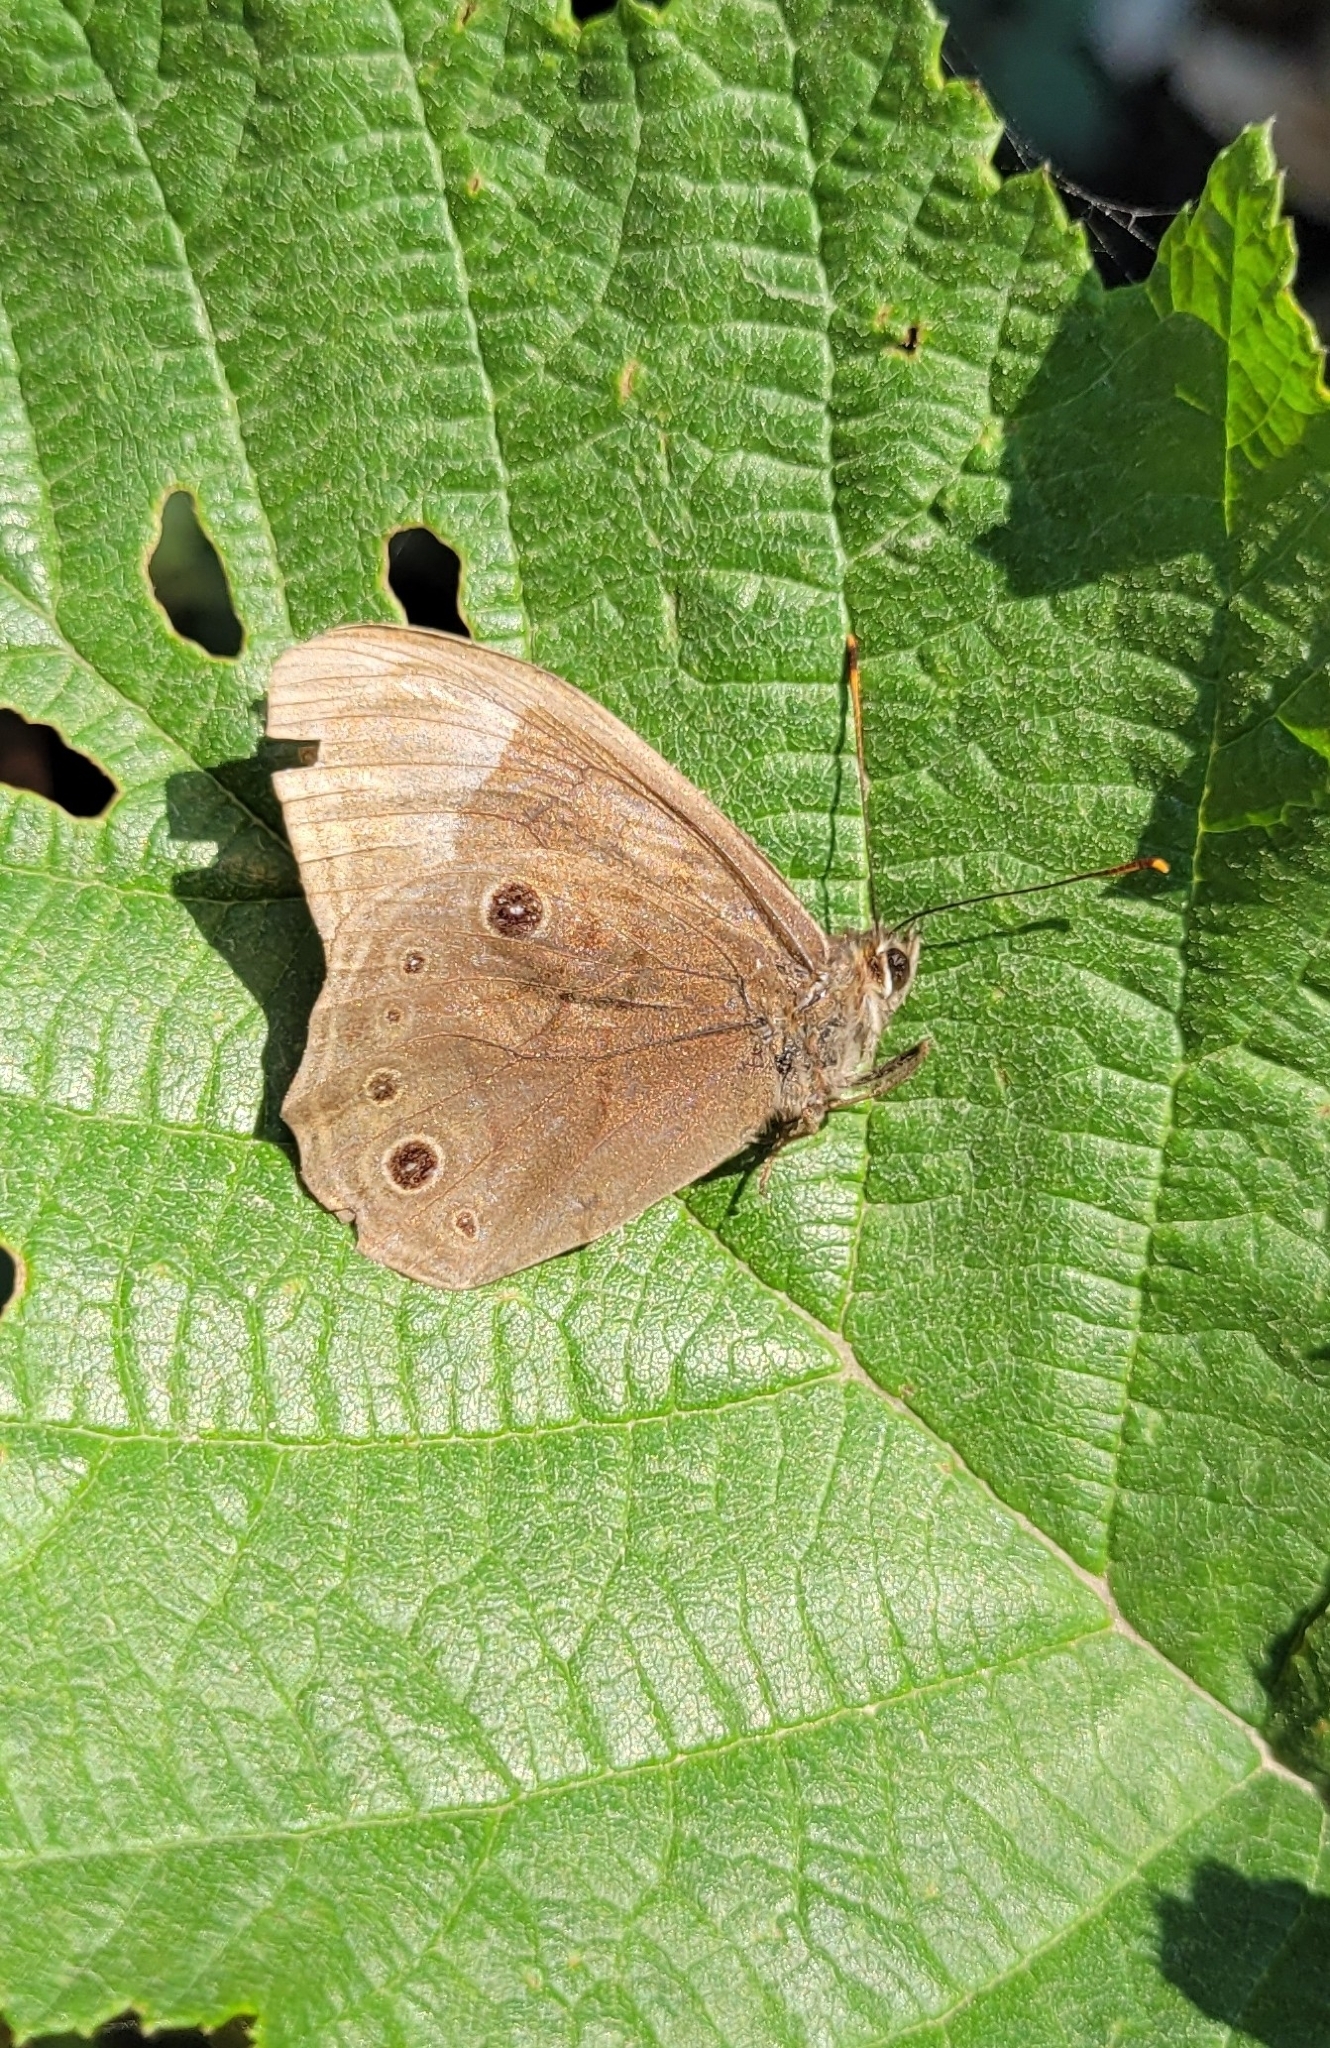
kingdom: Animalia
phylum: Arthropoda
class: Insecta
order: Lepidoptera
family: Nymphalidae
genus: Lethe
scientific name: Lethe diana
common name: Diana treebrown
